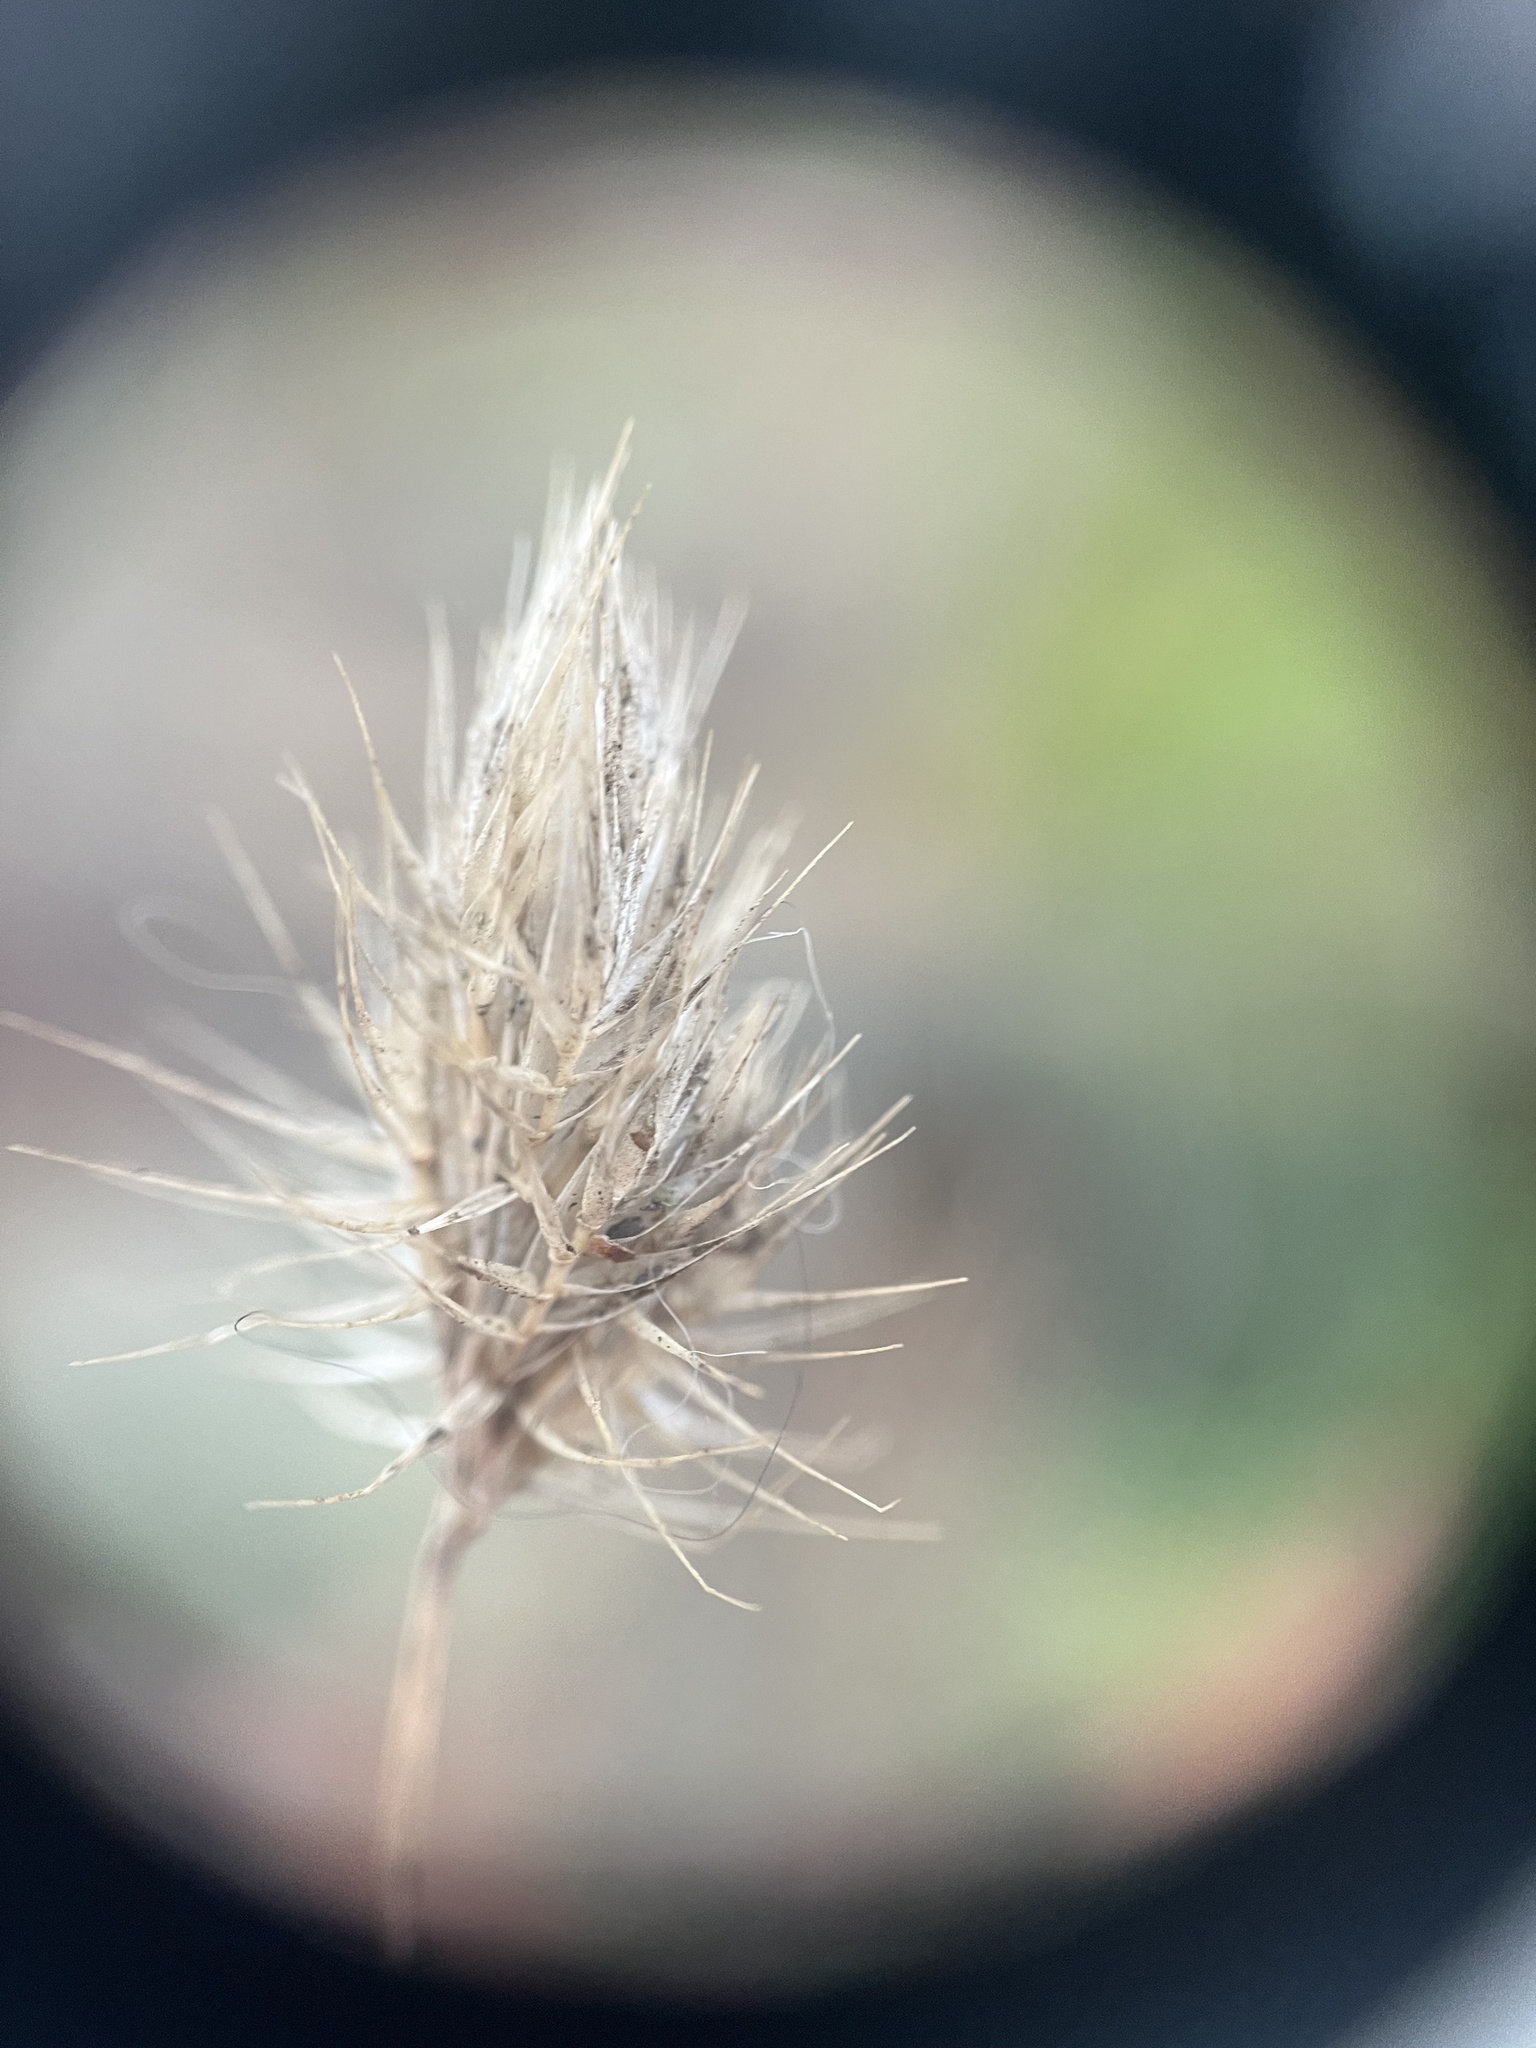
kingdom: Plantae
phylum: Tracheophyta
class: Liliopsida
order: Poales
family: Poaceae
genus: Cynosurus
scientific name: Cynosurus echinatus
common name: Rough dog's-tail
